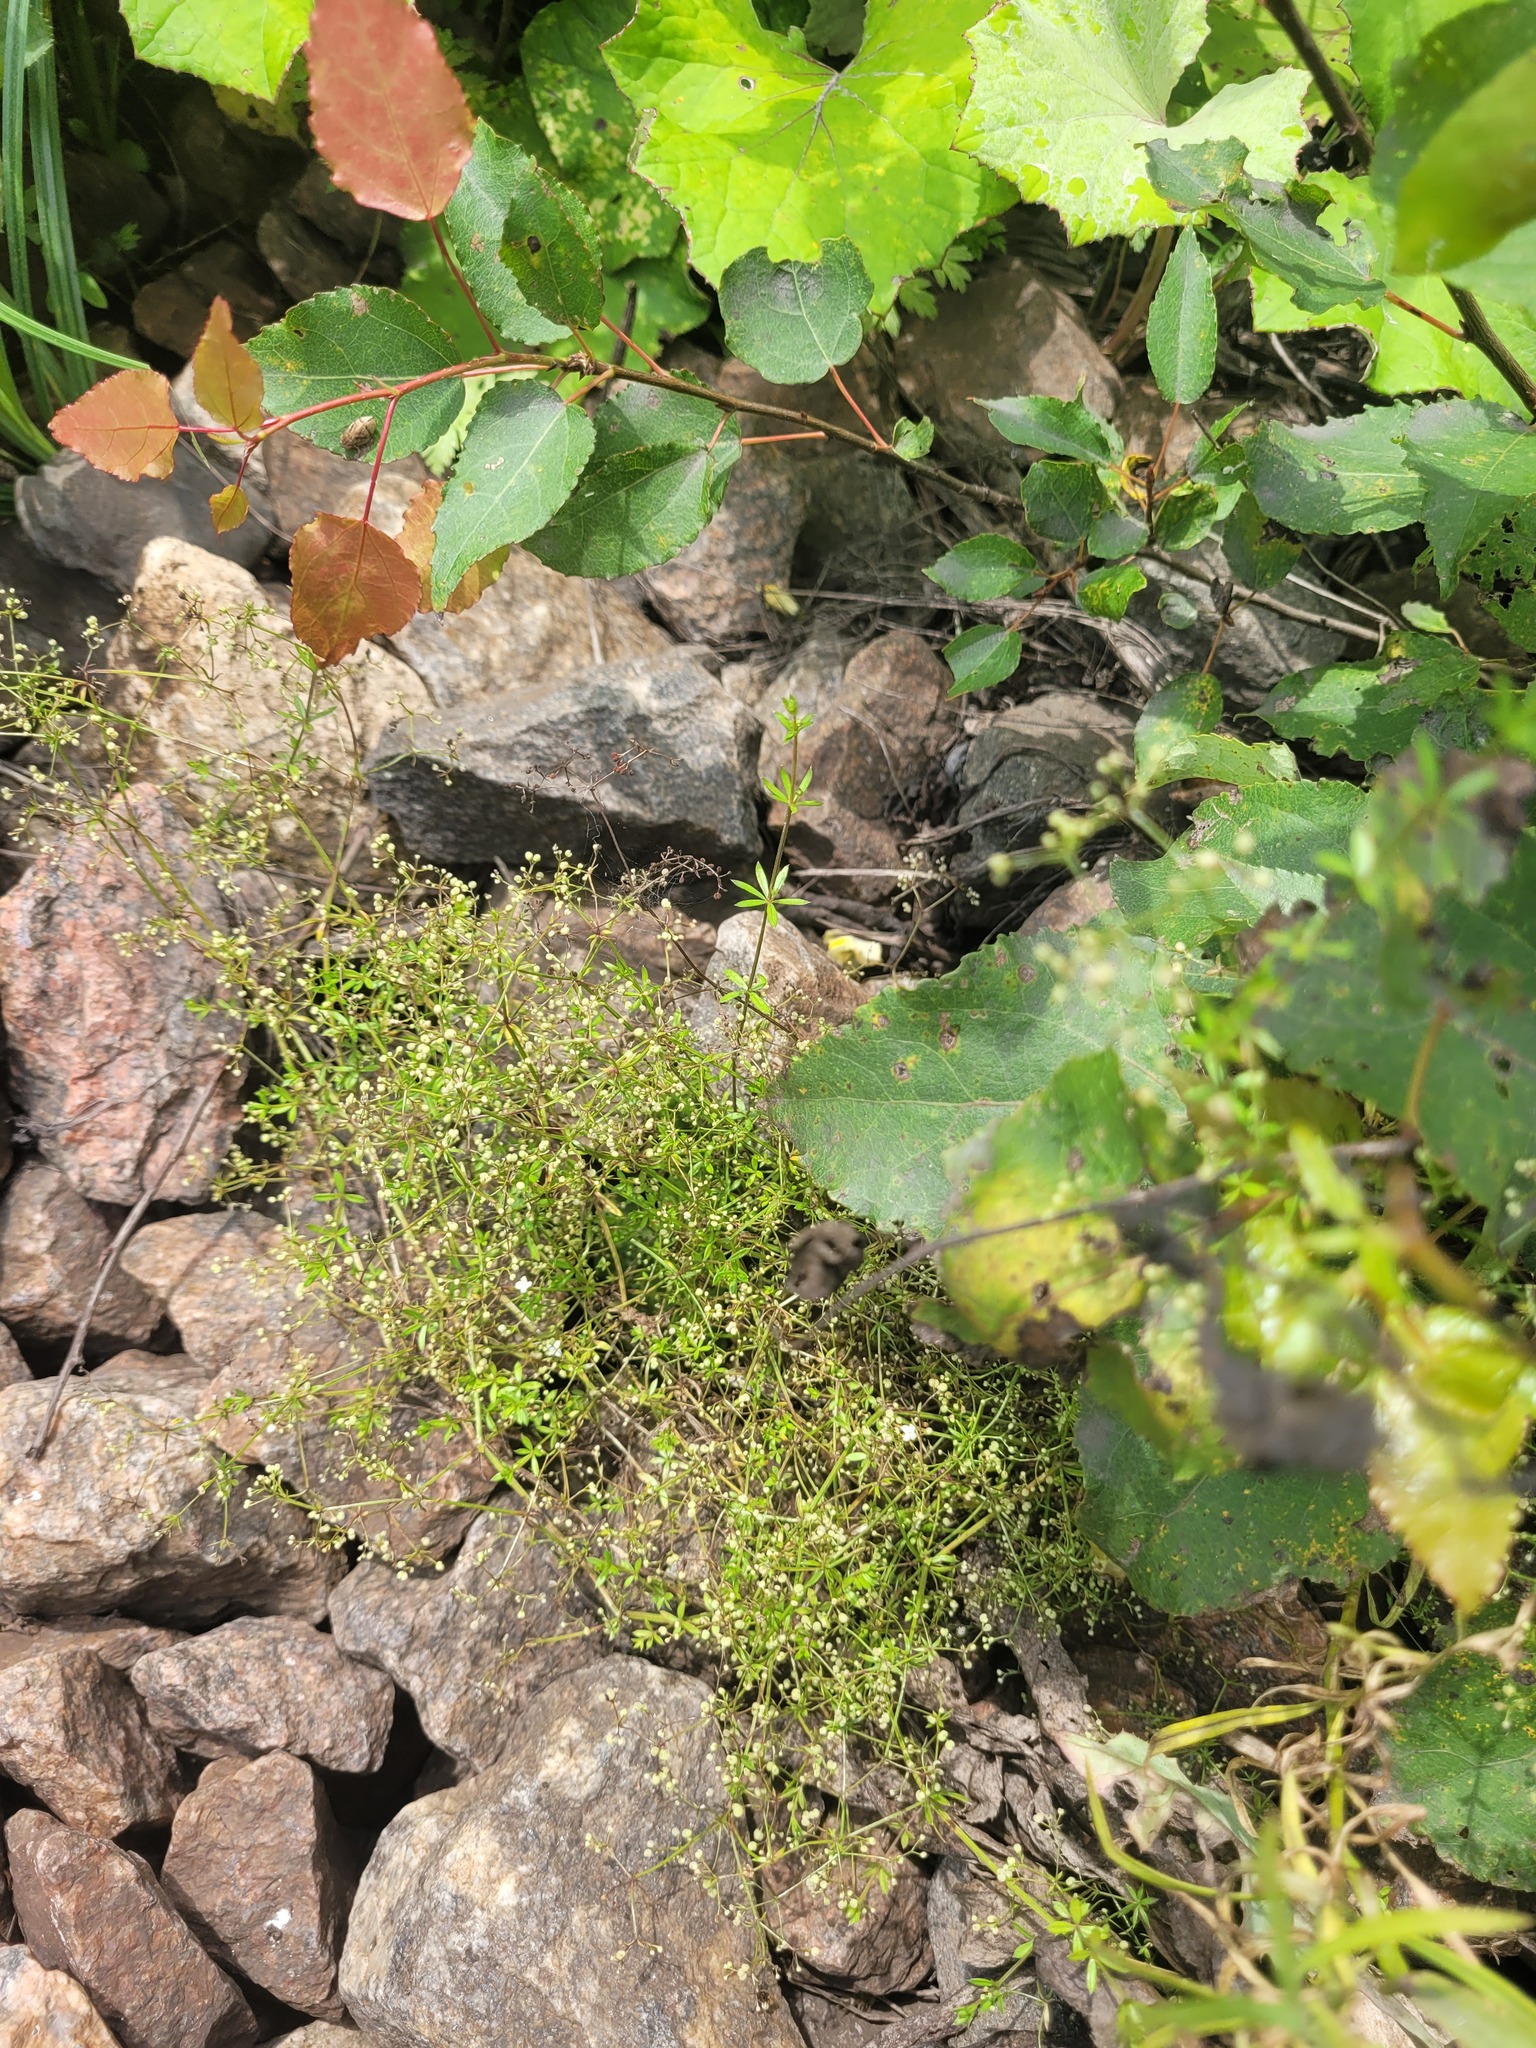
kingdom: Plantae
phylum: Tracheophyta
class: Magnoliopsida
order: Gentianales
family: Rubiaceae
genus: Galium
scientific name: Galium uliginosum
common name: Fen bedstraw
